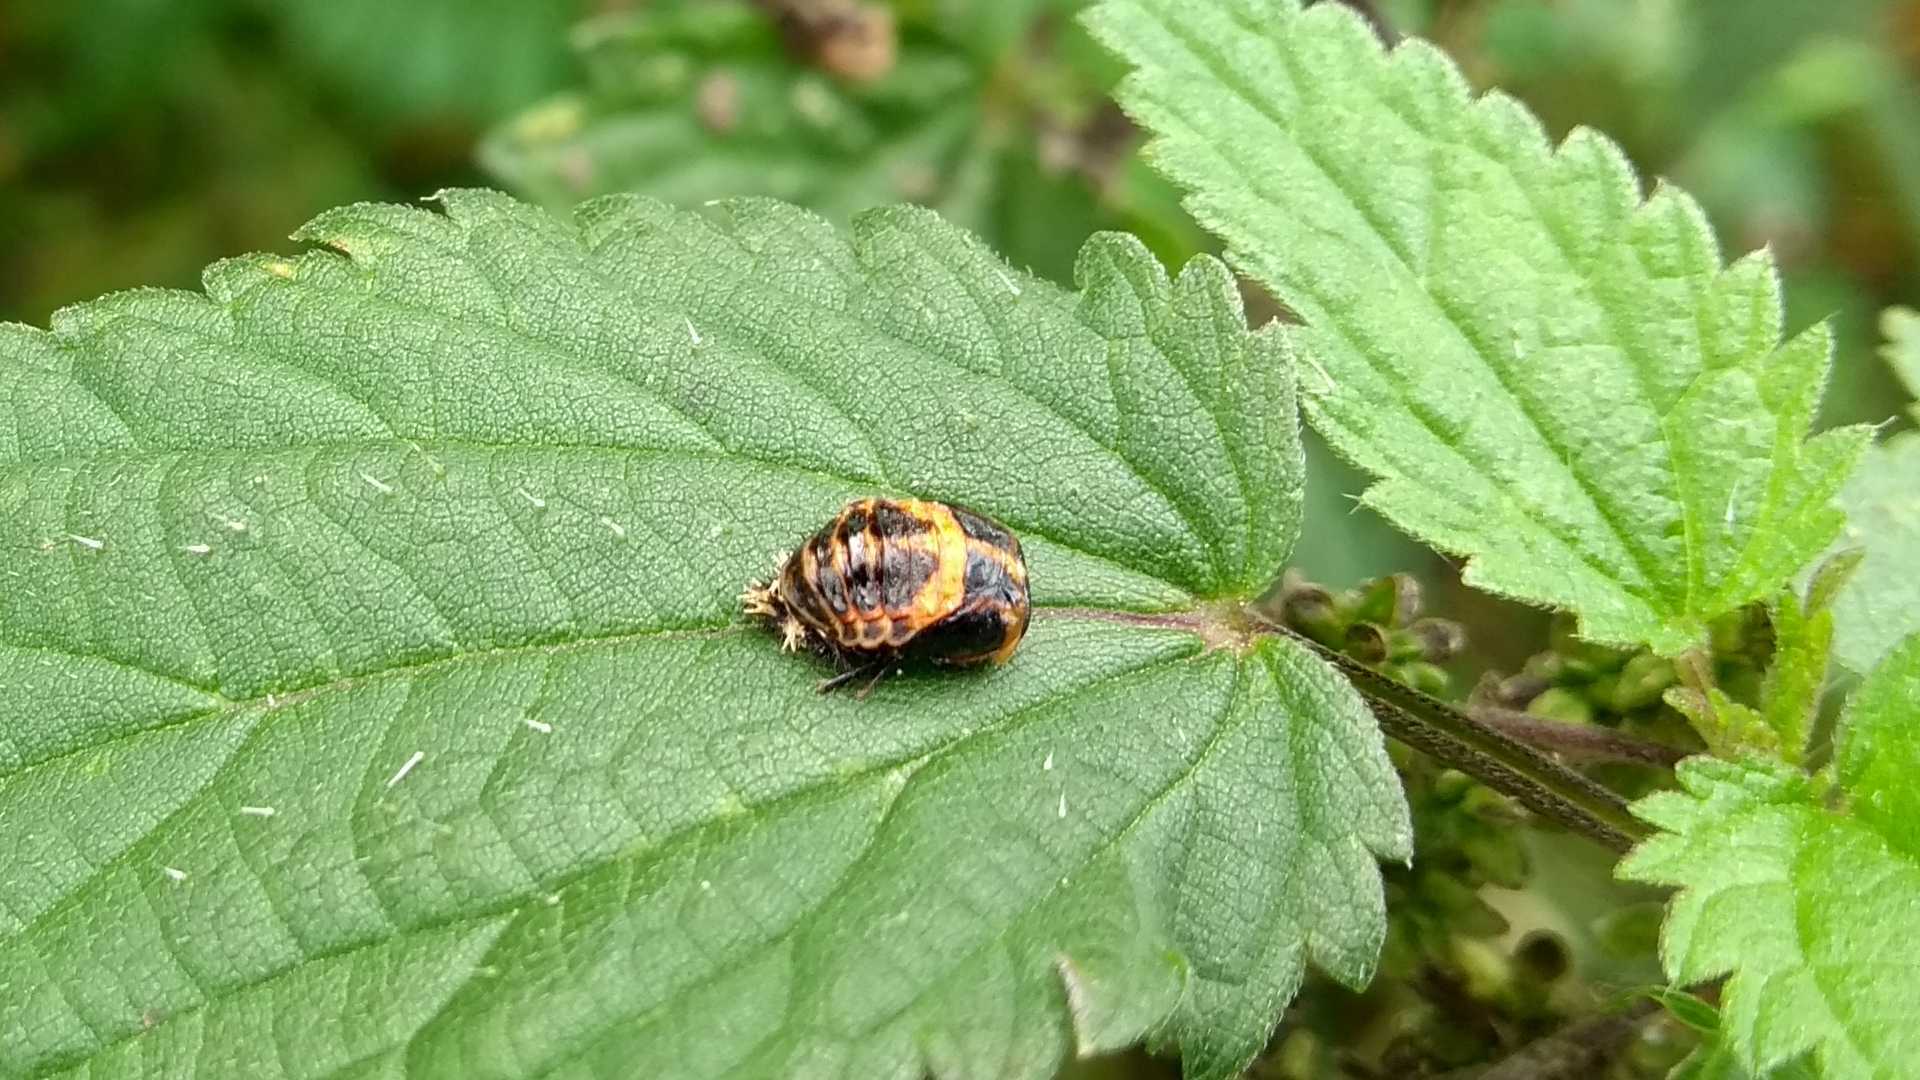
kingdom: Animalia
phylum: Arthropoda
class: Insecta
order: Coleoptera
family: Coccinellidae
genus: Harmonia
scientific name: Harmonia axyridis
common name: Harlequin ladybird
